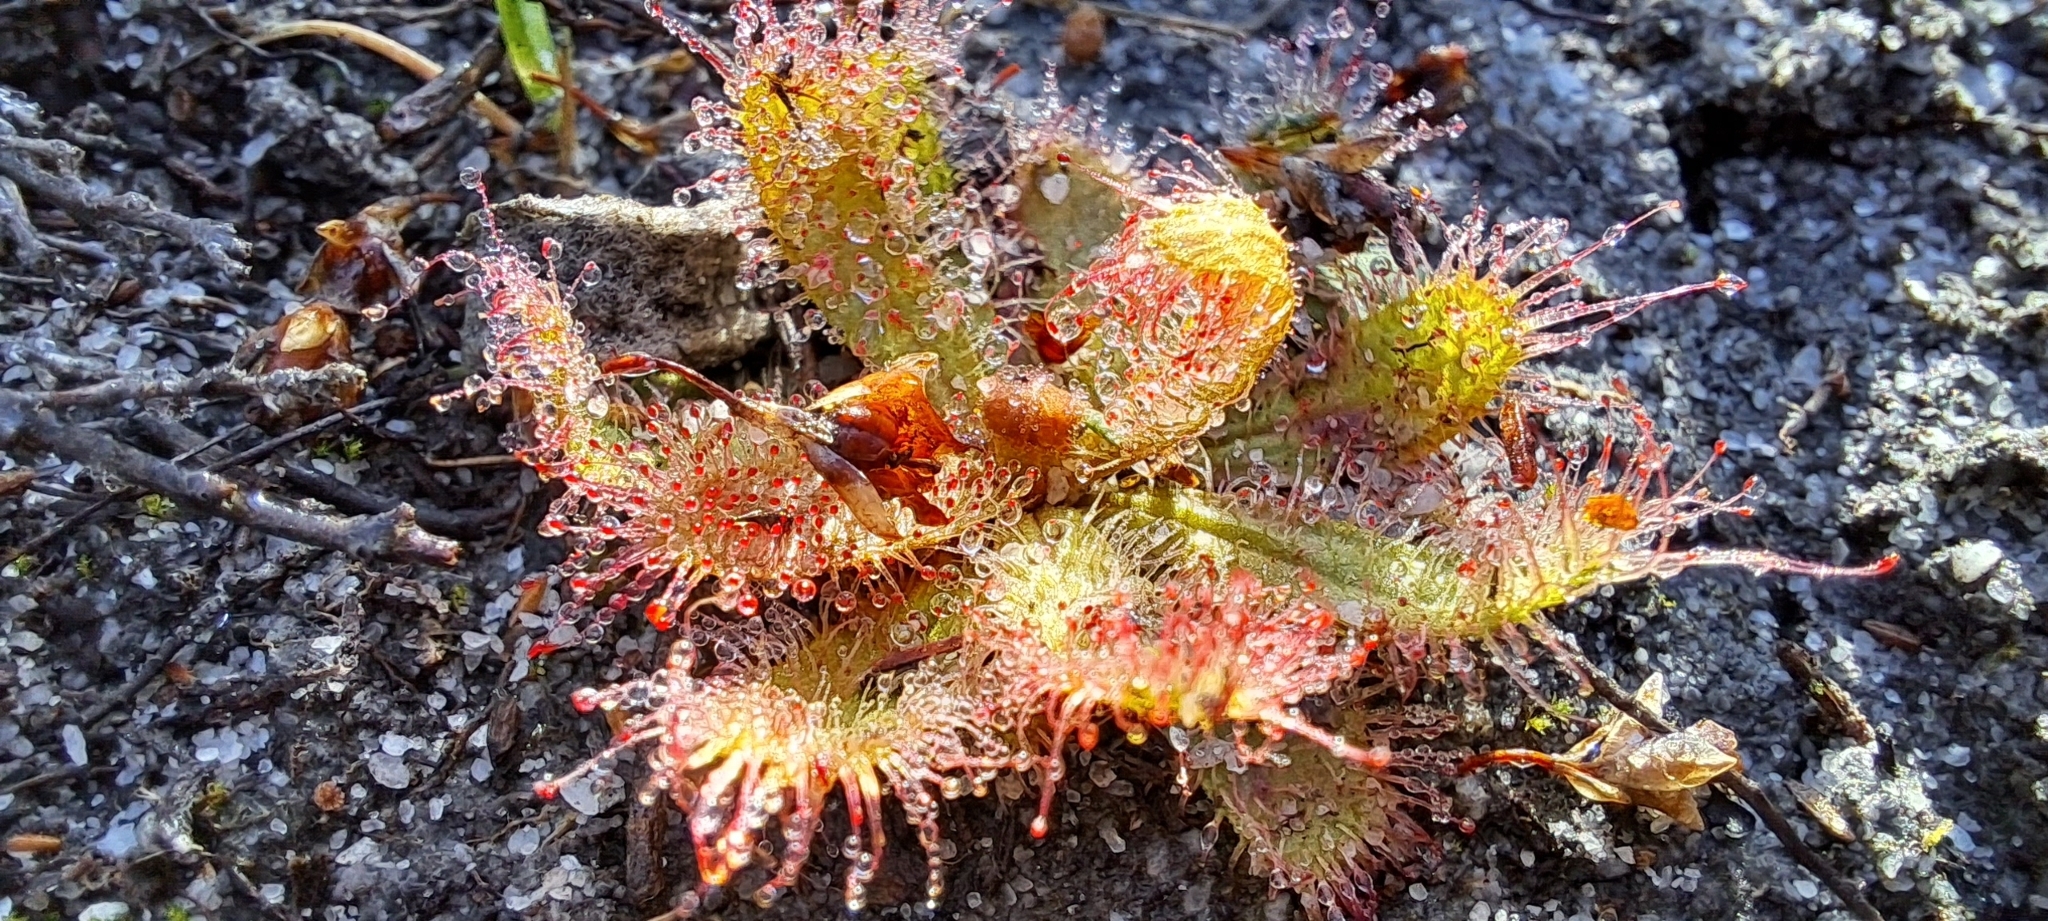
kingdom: Plantae
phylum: Tracheophyta
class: Magnoliopsida
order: Caryophyllales
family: Droseraceae
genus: Drosera
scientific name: Drosera cistiflora
